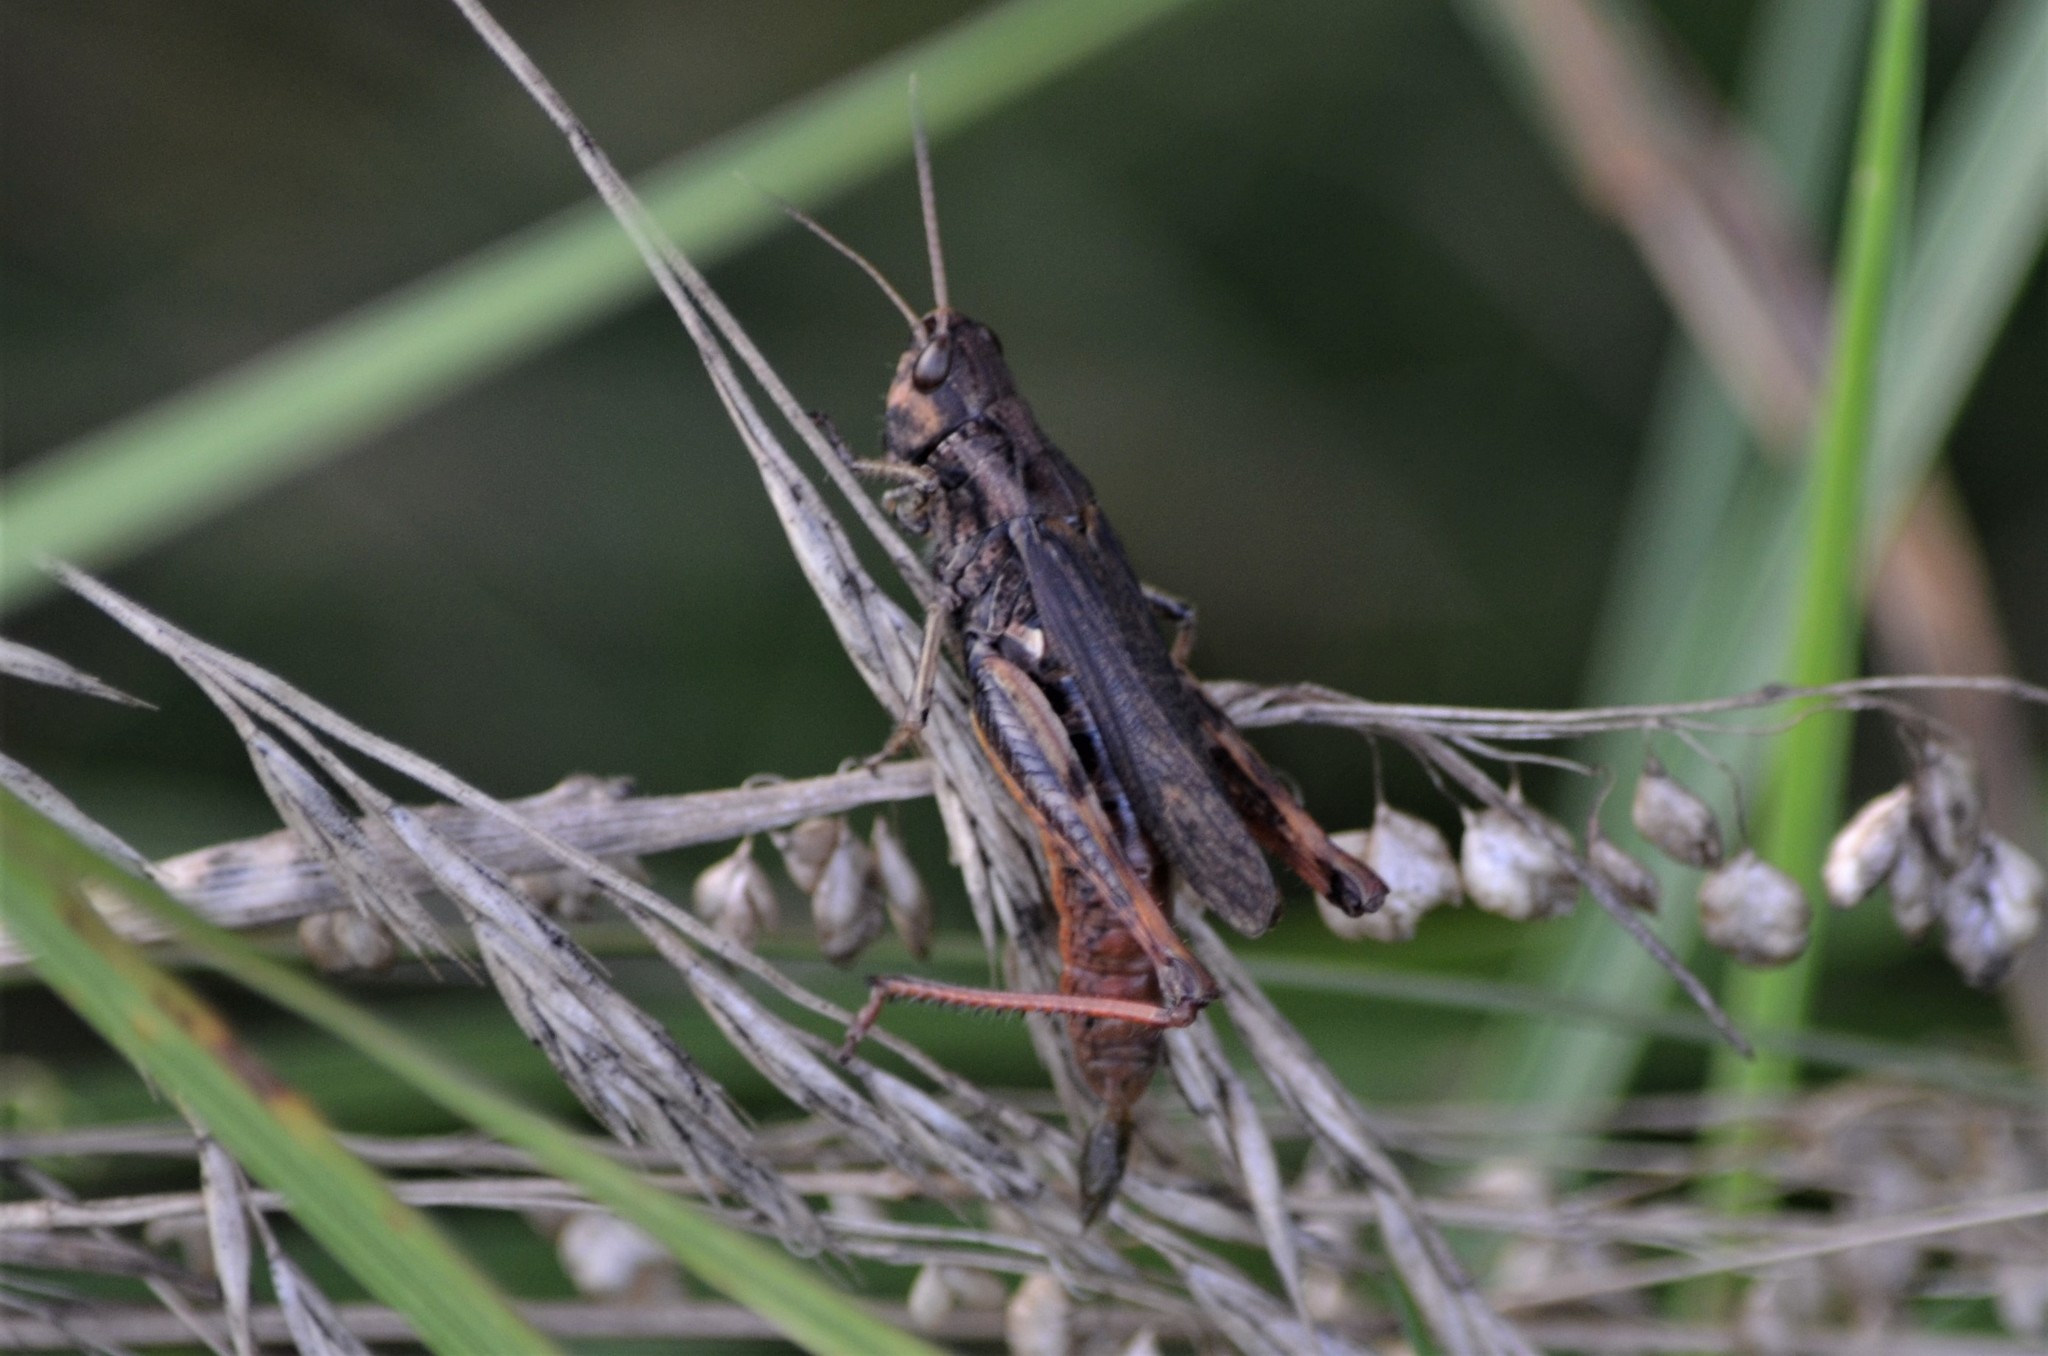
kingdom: Animalia
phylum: Arthropoda
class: Insecta
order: Orthoptera
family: Acrididae
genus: Gomphocerippus
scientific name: Gomphocerippus rufus
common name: Rufous grasshopper
